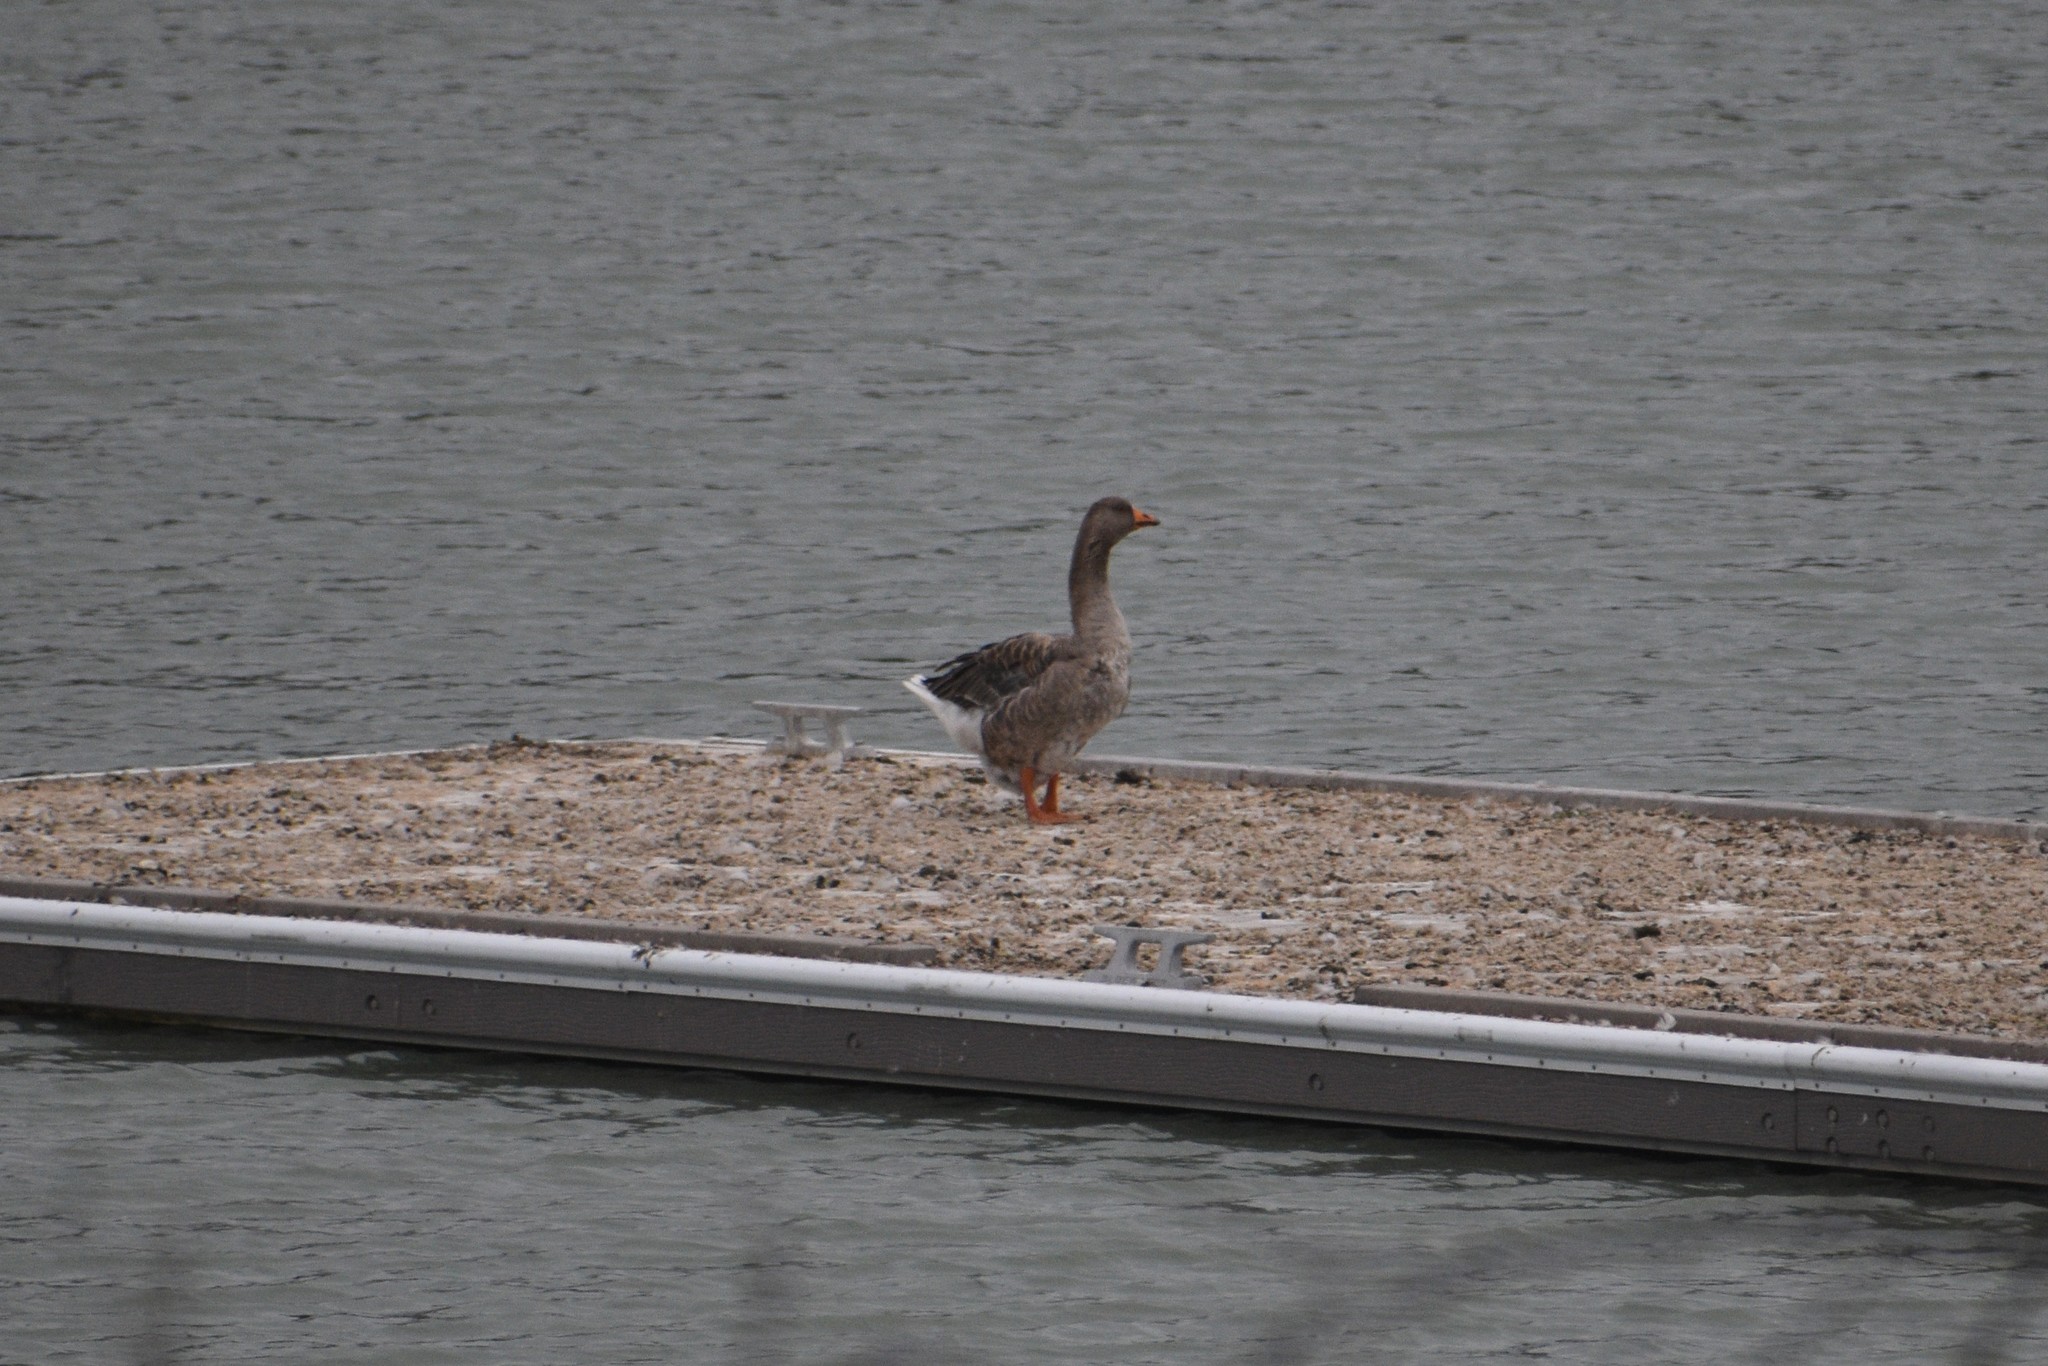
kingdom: Animalia
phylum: Chordata
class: Aves
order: Anseriformes
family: Anatidae
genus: Anser
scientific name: Anser anser
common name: Greylag goose
